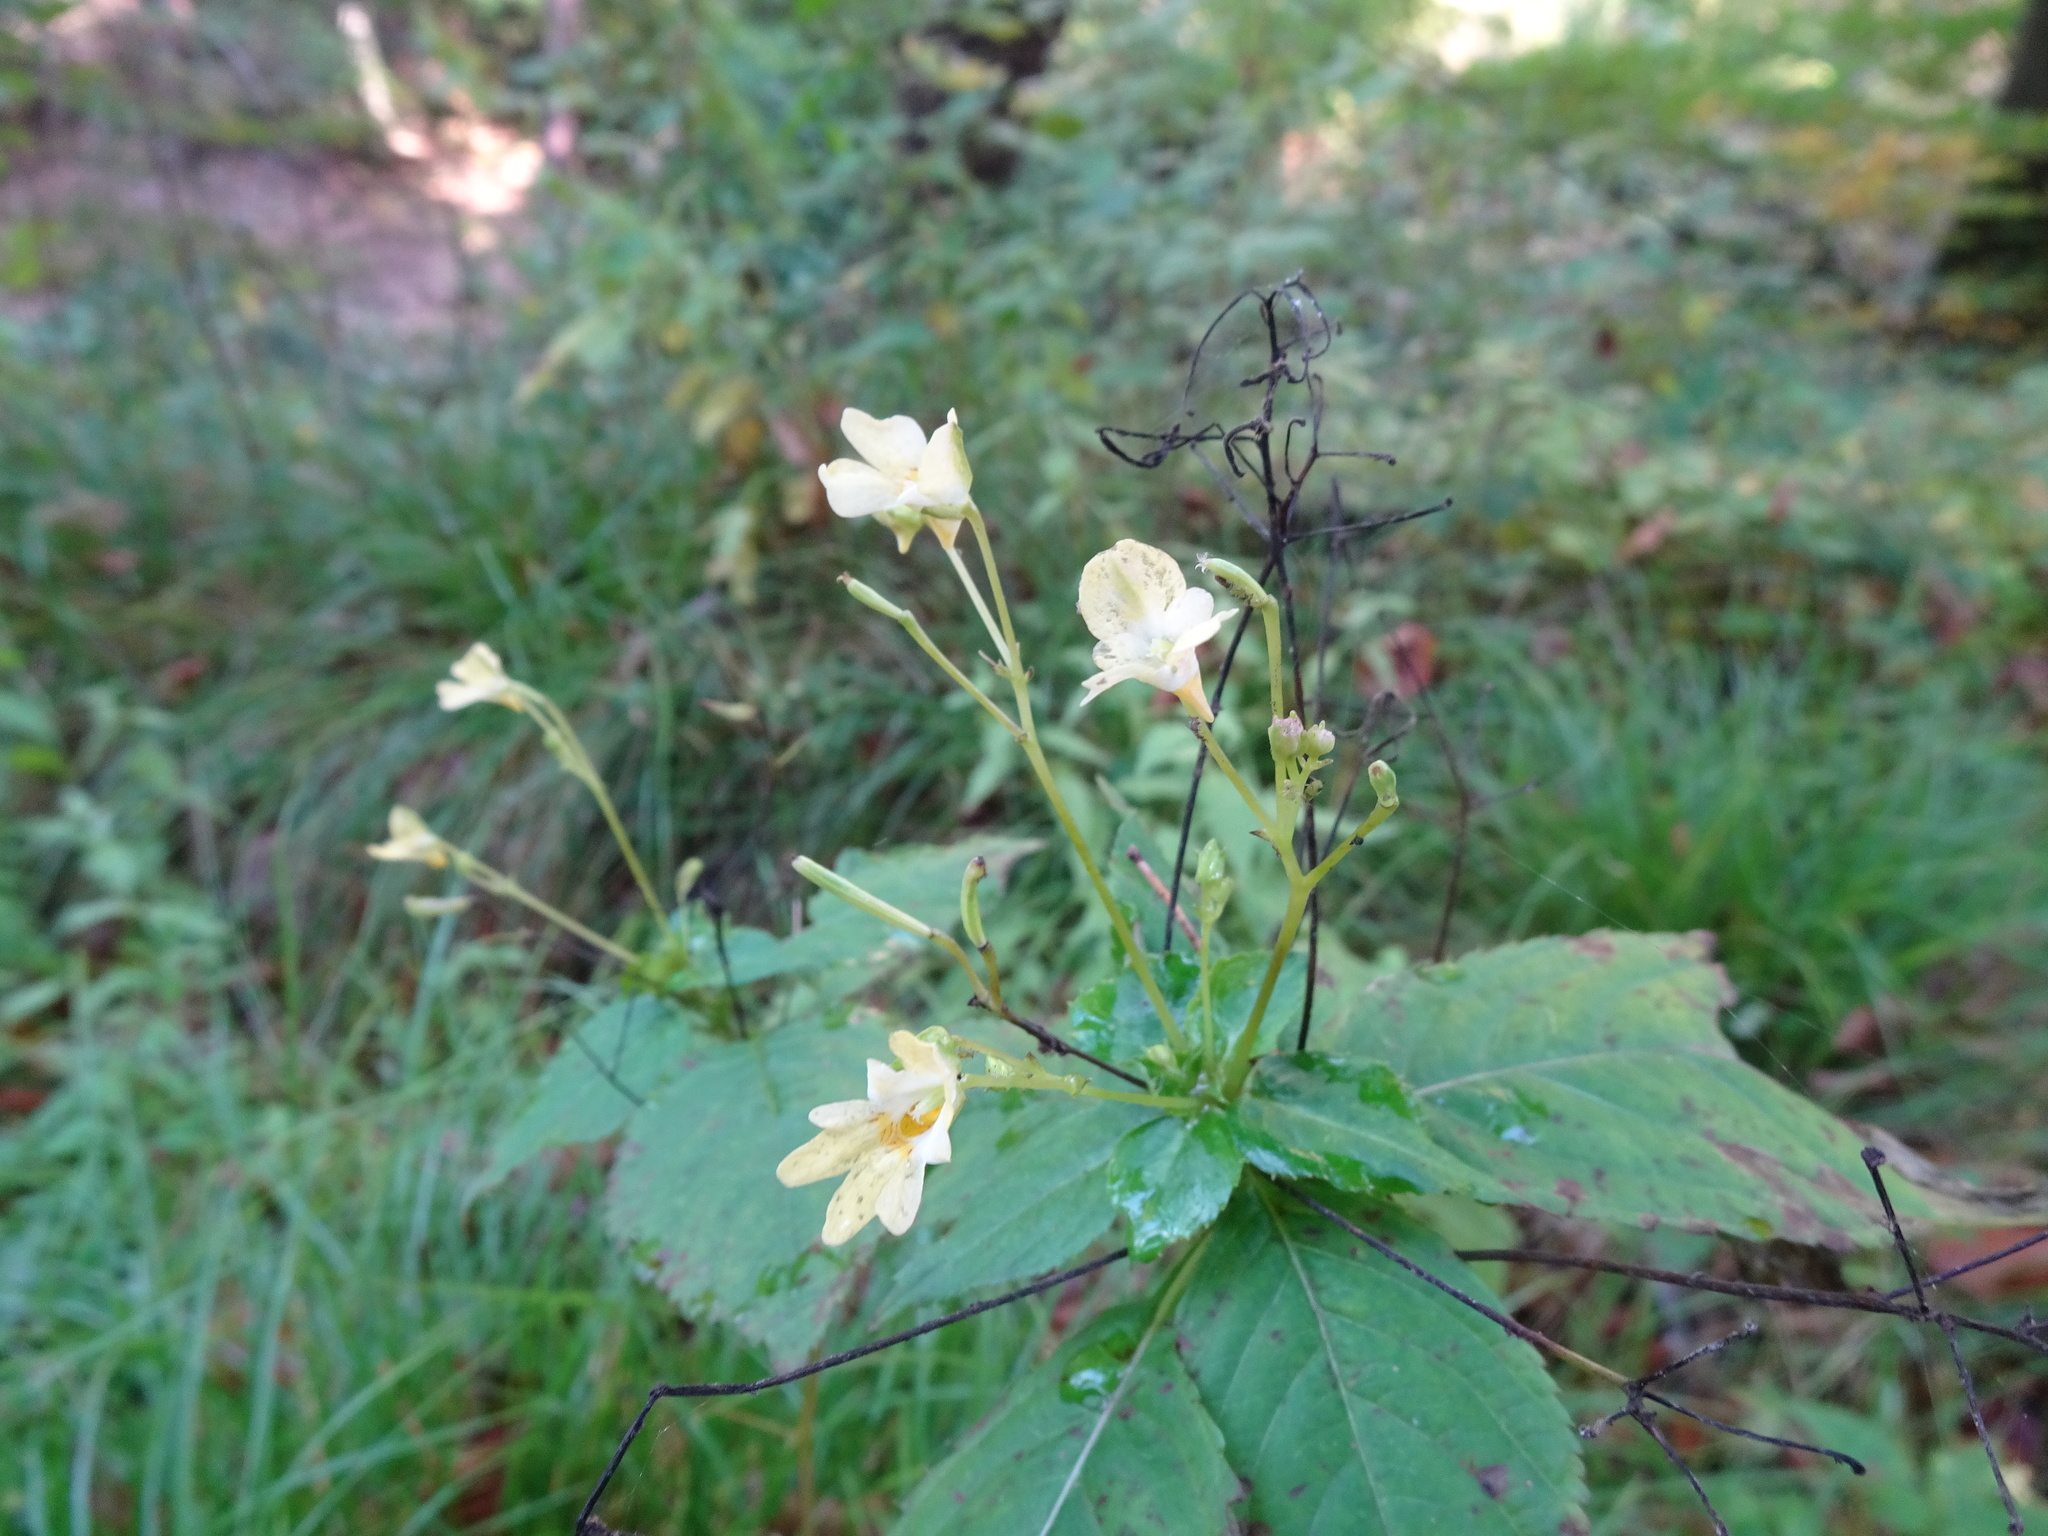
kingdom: Plantae
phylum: Tracheophyta
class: Magnoliopsida
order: Ericales
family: Balsaminaceae
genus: Impatiens
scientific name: Impatiens parviflora
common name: Small balsam
